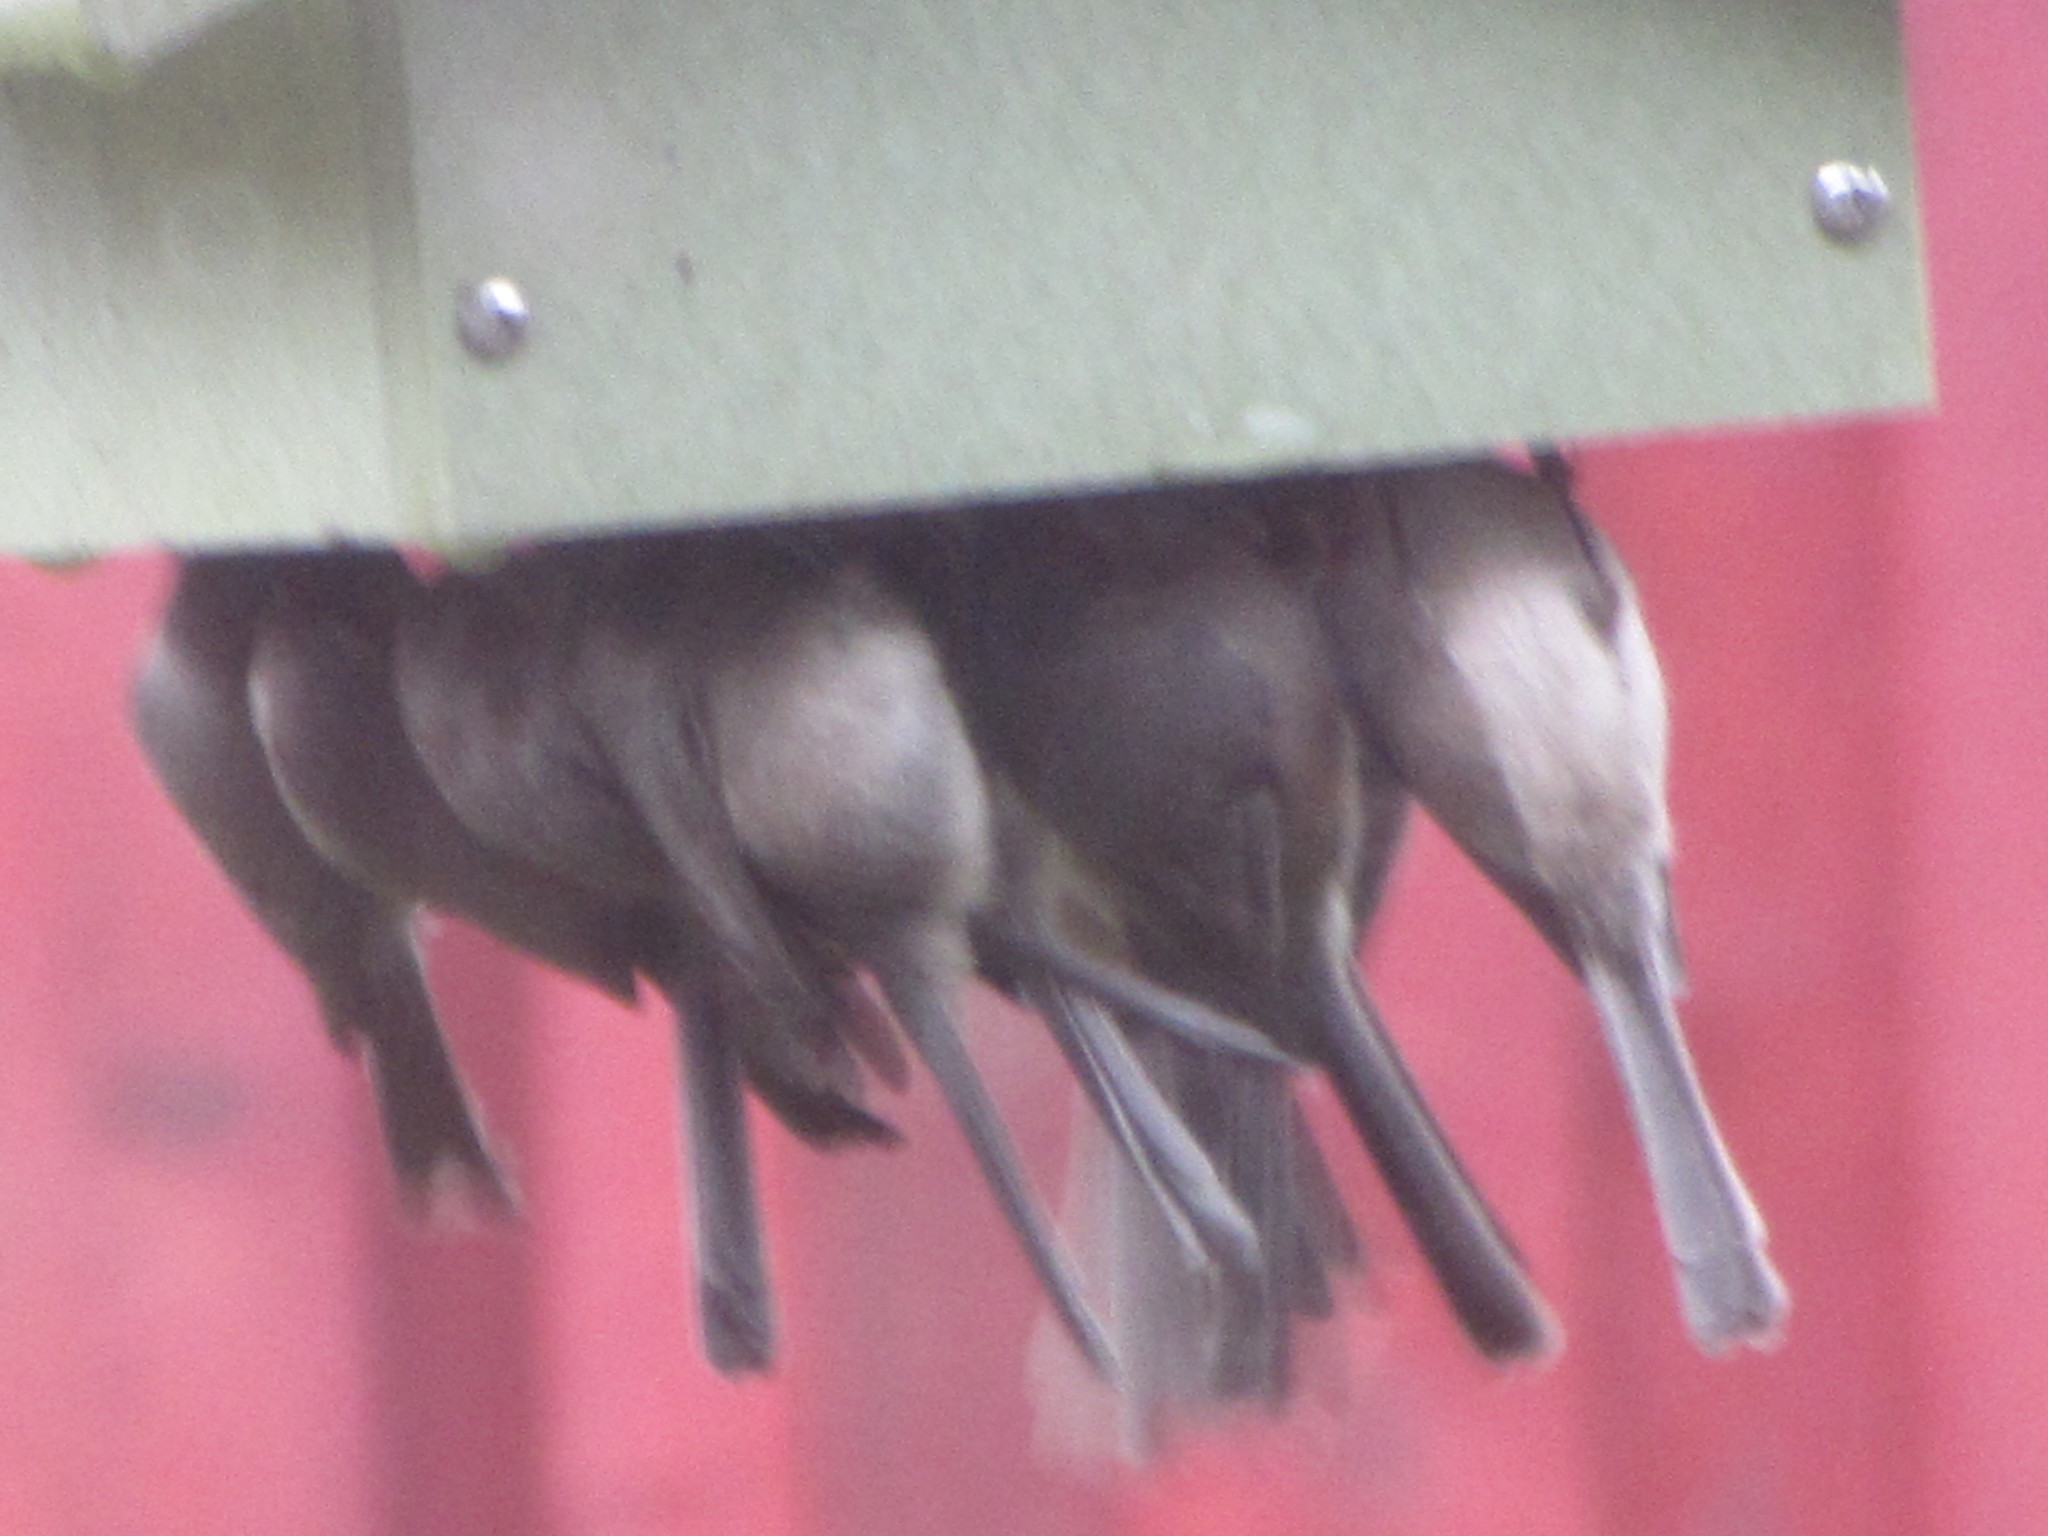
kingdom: Animalia
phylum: Chordata
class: Aves
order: Passeriformes
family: Aegithalidae
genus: Psaltriparus
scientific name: Psaltriparus minimus
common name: American bushtit
